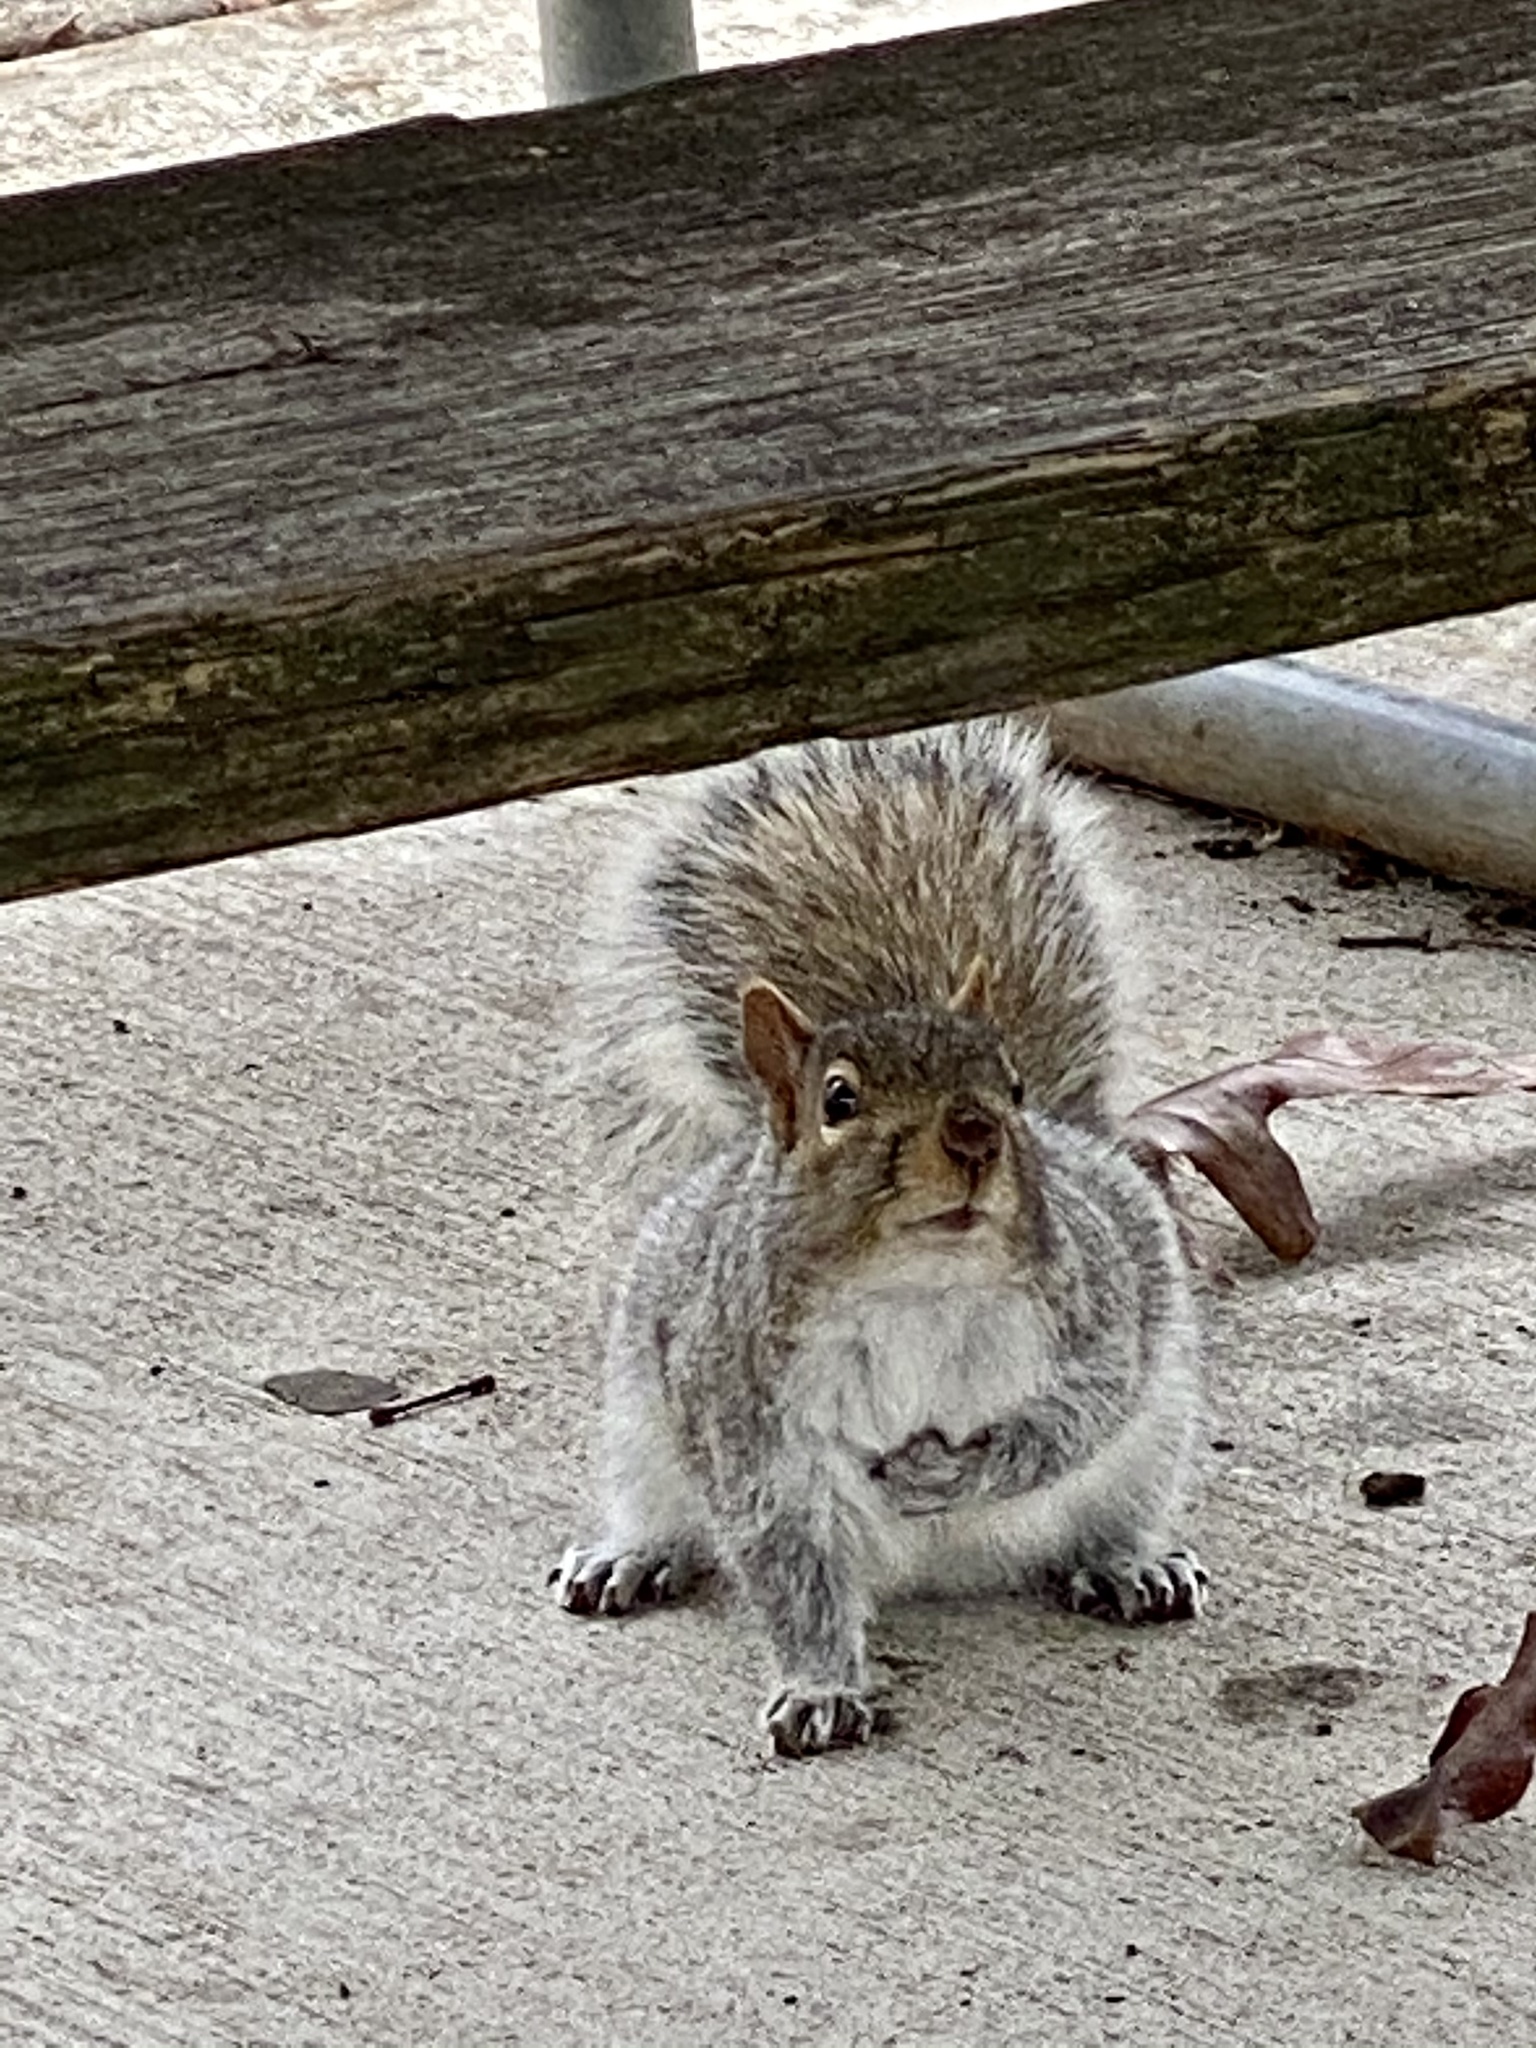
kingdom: Animalia
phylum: Chordata
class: Mammalia
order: Rodentia
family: Sciuridae
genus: Sciurus
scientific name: Sciurus carolinensis
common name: Eastern gray squirrel
